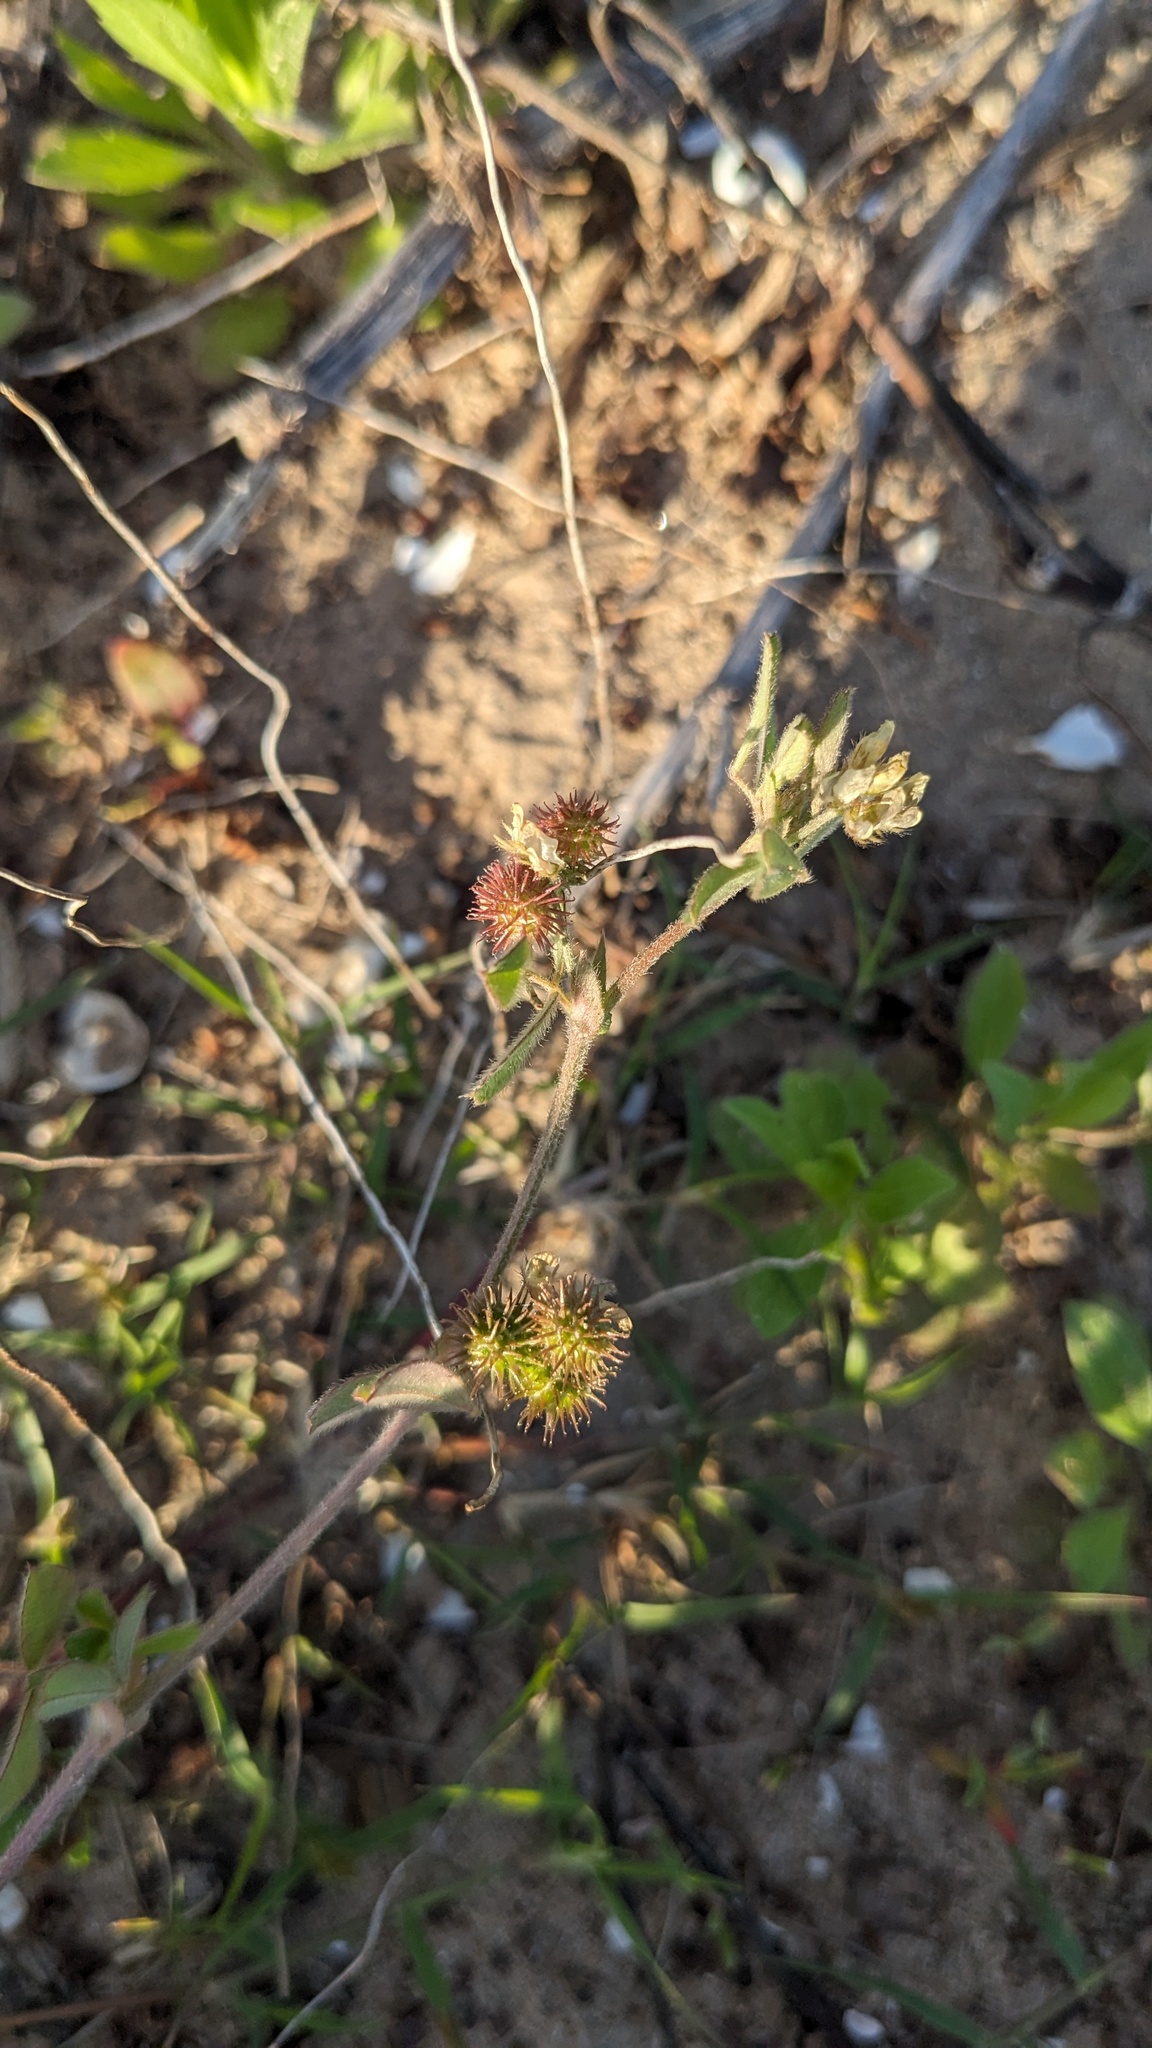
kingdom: Plantae
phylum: Tracheophyta
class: Magnoliopsida
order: Fabales
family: Fabaceae
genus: Medicago
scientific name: Medicago minima
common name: Little bur-clover
